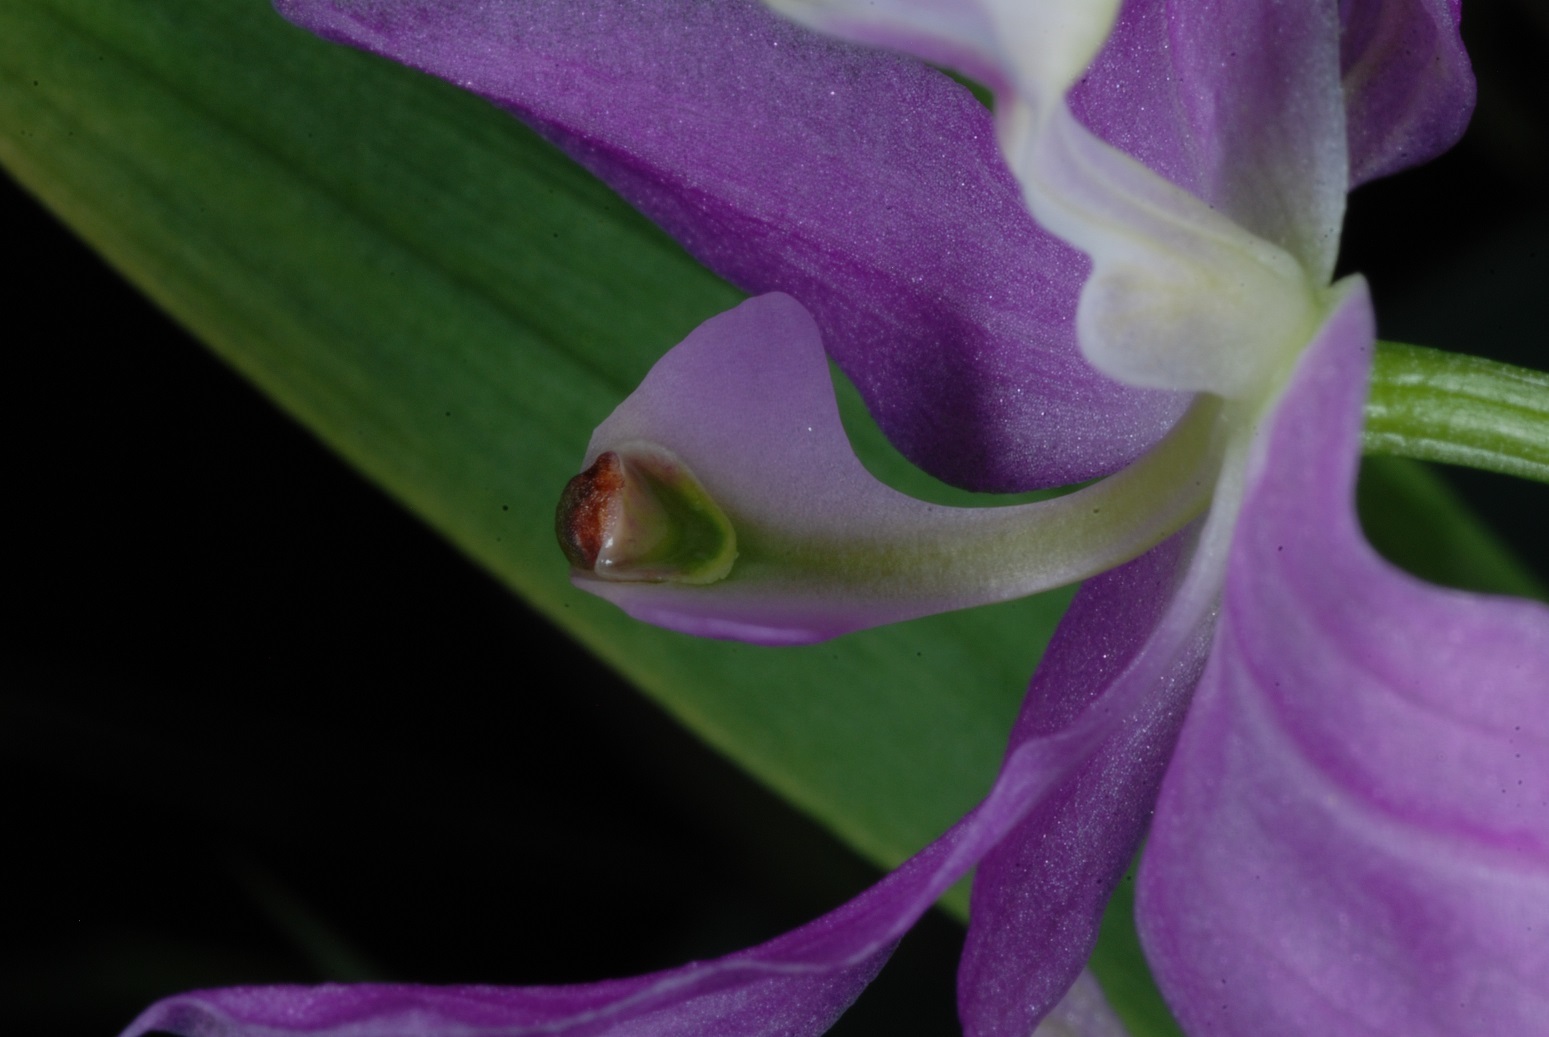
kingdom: Plantae
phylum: Tracheophyta
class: Liliopsida
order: Asparagales
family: Orchidaceae
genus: Calopogon
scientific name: Calopogon oklahomensis
